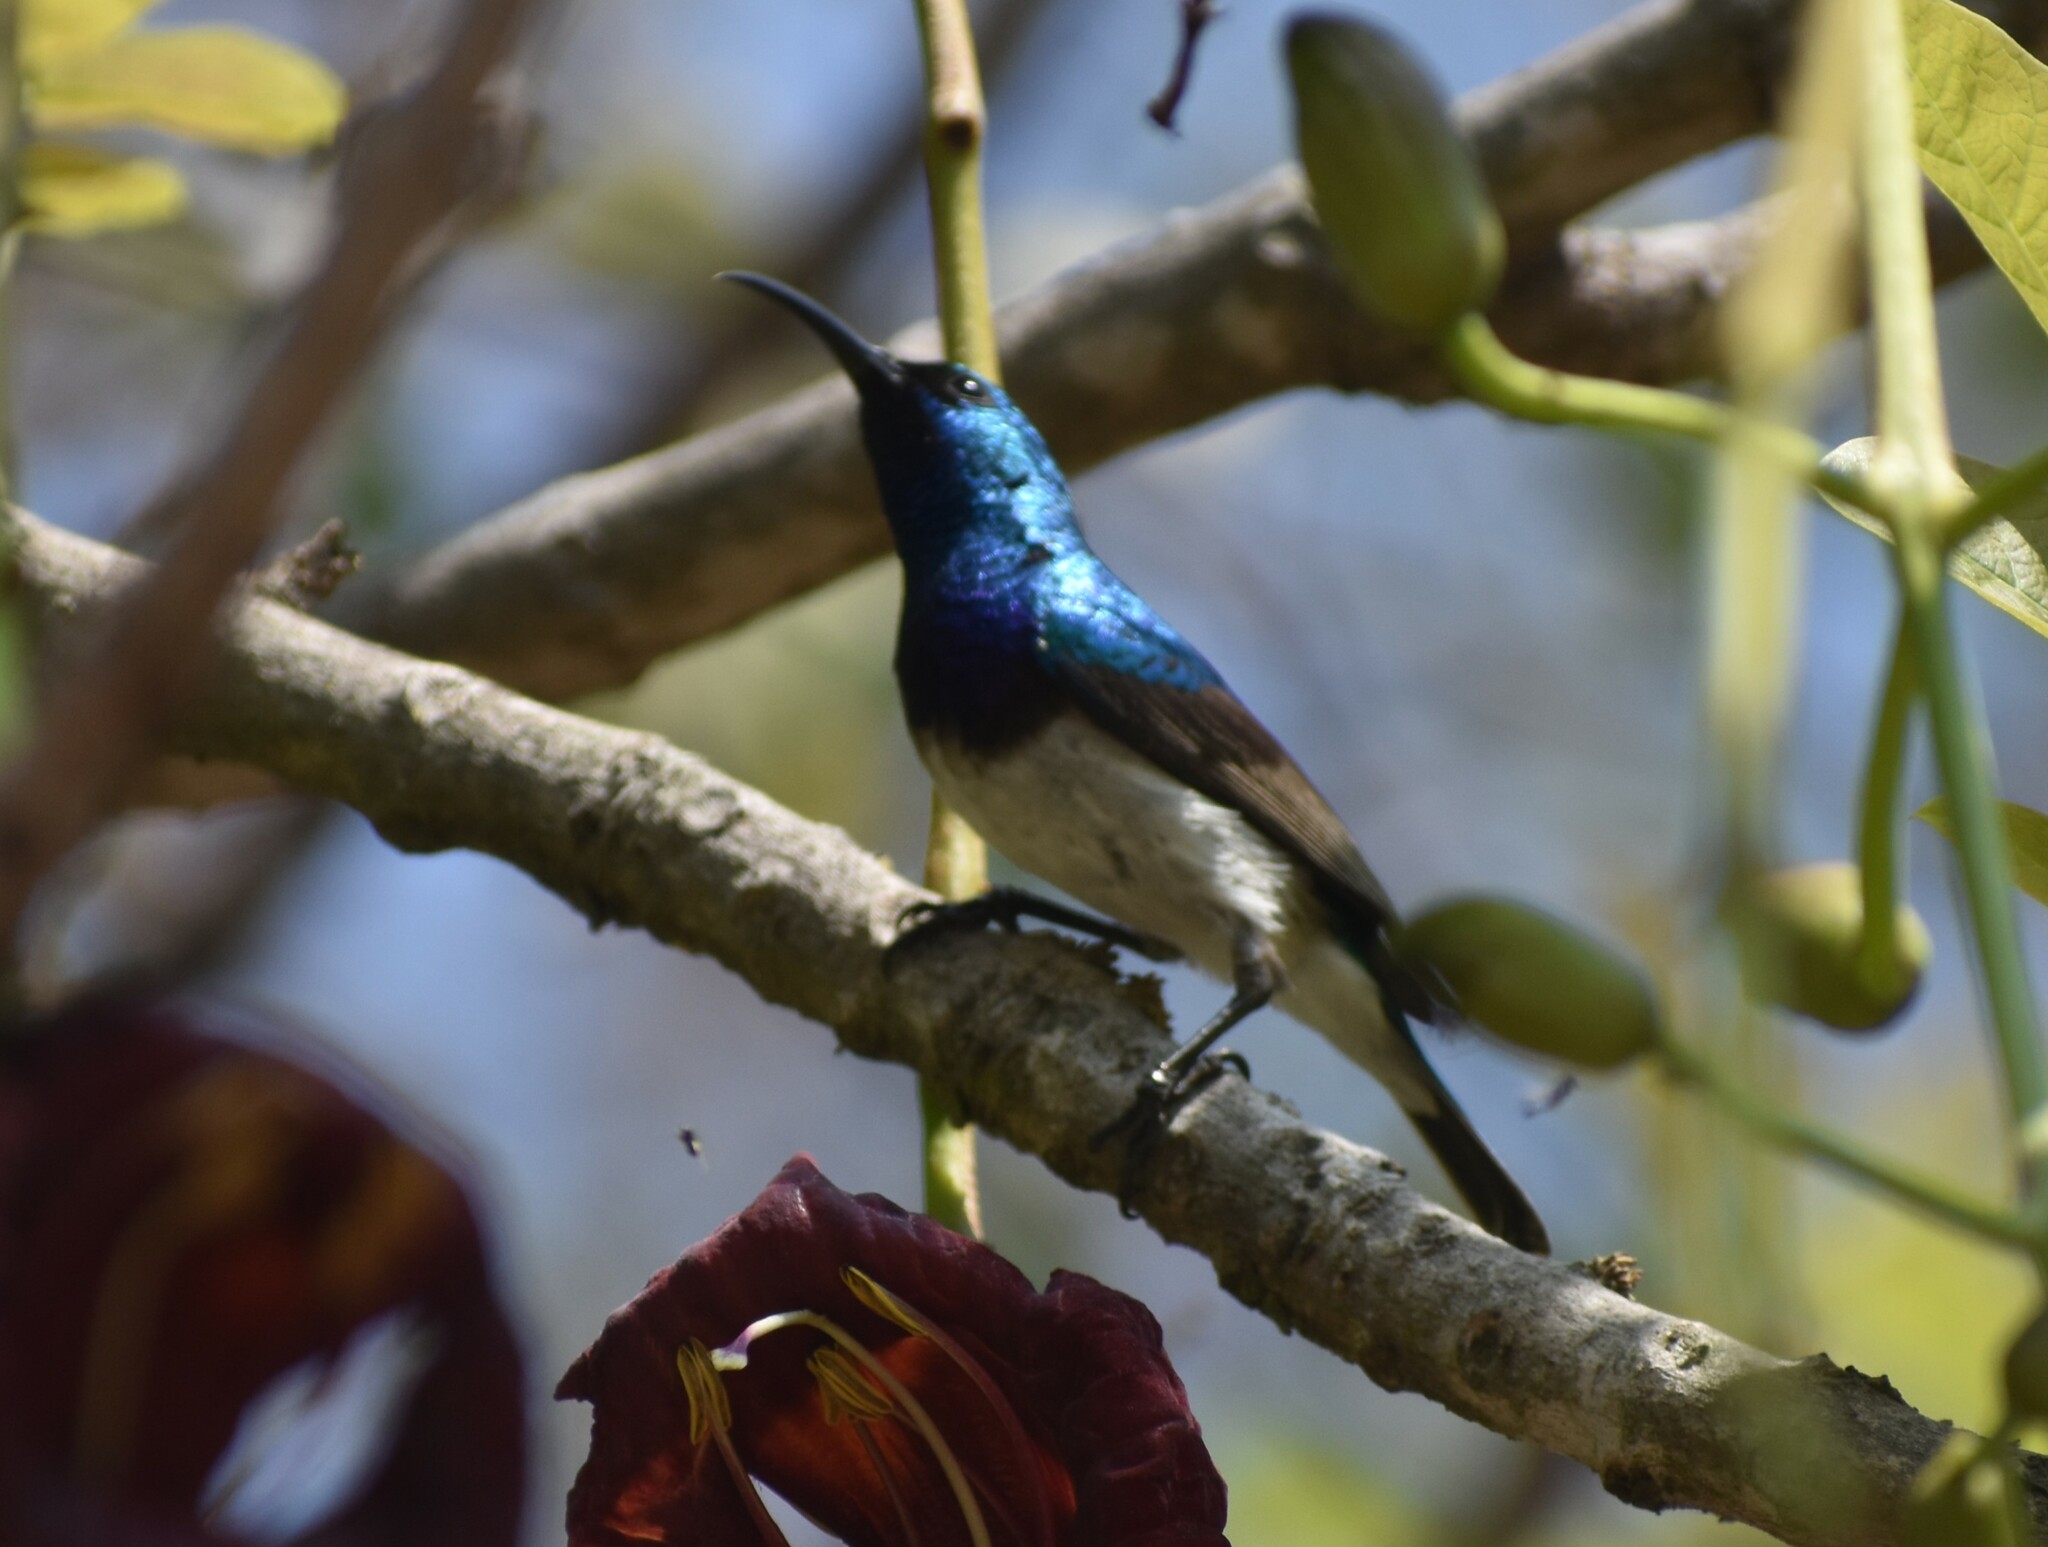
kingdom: Animalia
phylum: Chordata
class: Aves
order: Passeriformes
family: Nectariniidae
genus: Cinnyris
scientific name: Cinnyris talatala
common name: White-bellied sunbird
